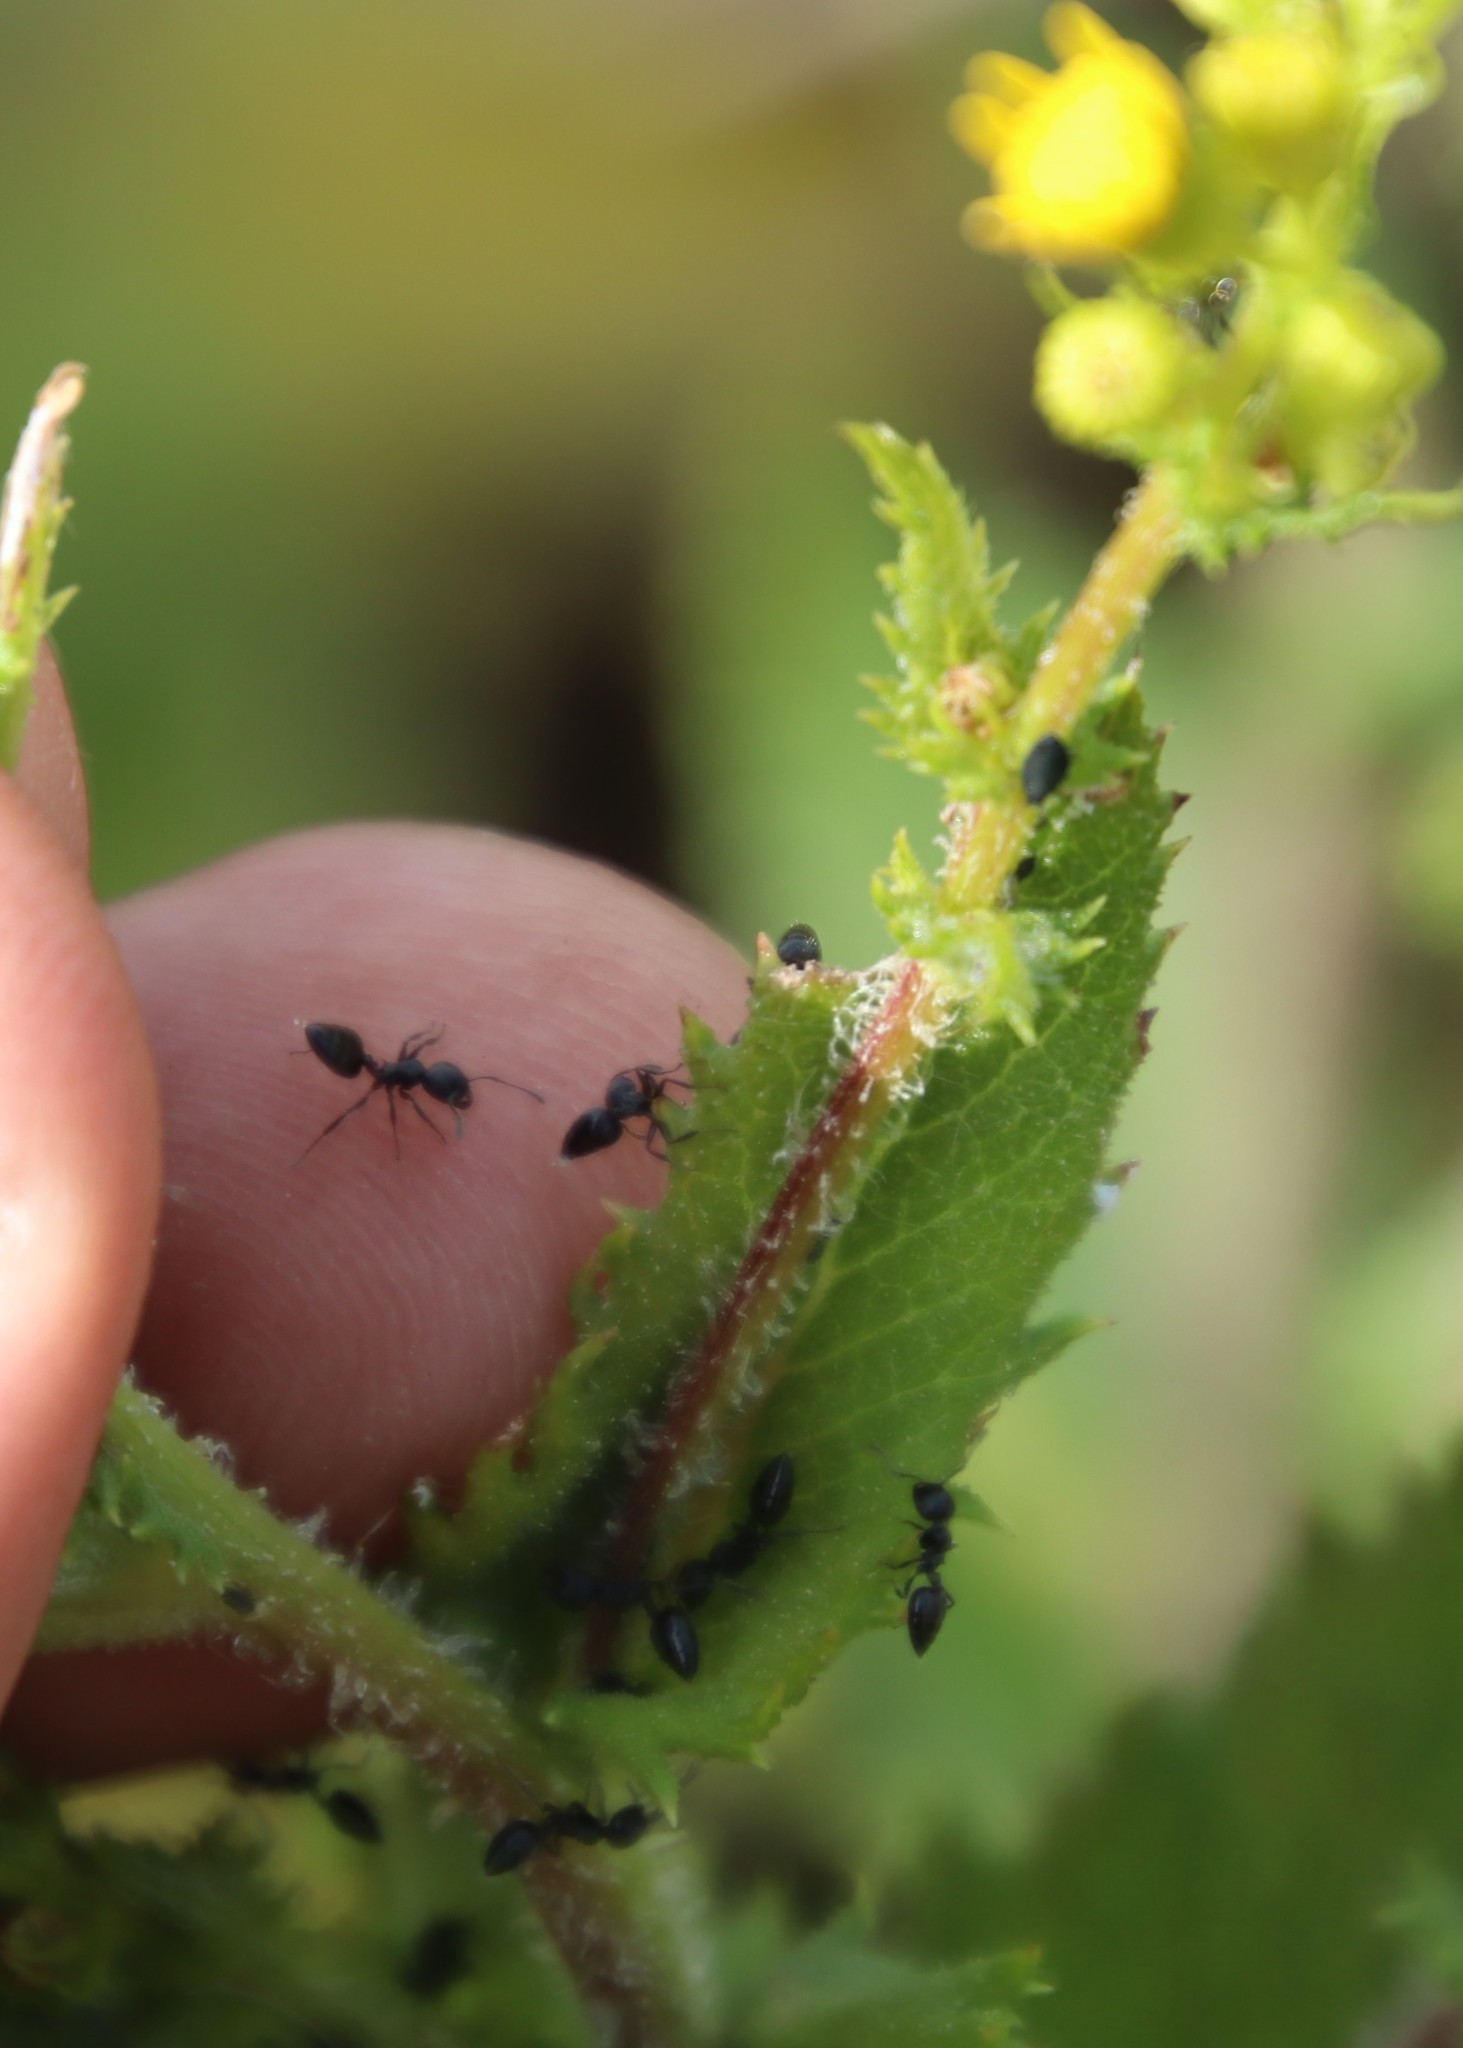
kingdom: Plantae
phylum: Tracheophyta
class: Magnoliopsida
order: Asterales
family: Asteraceae
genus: Senecio
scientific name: Senecio subcanescens
